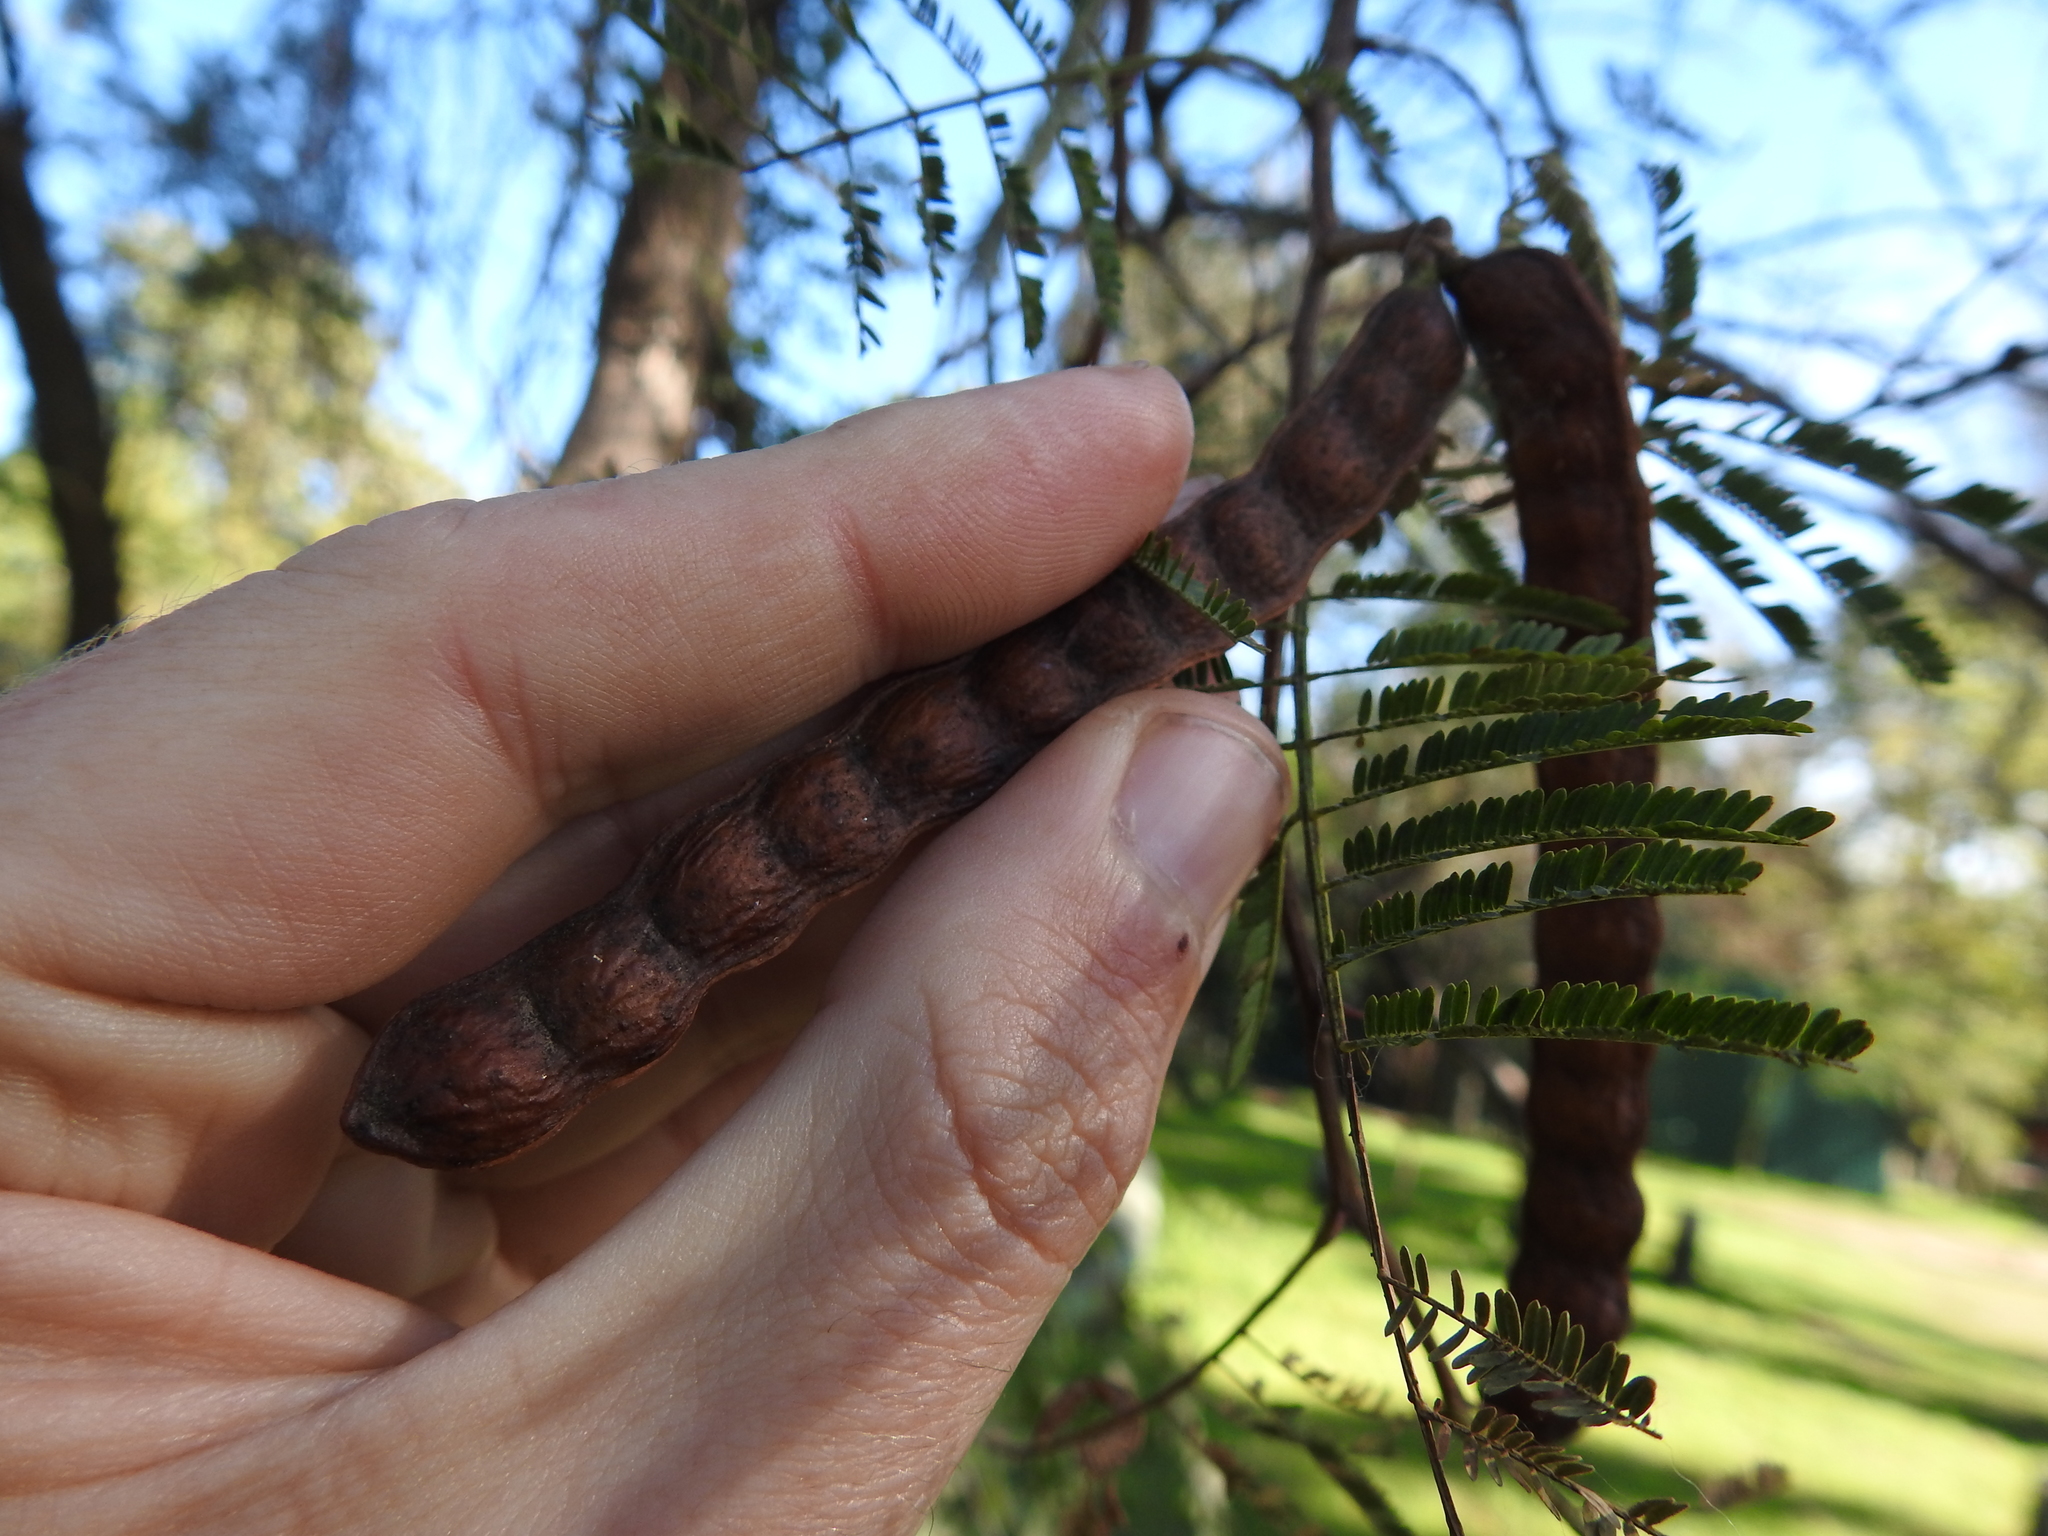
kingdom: Plantae
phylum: Tracheophyta
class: Magnoliopsida
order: Fabales
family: Fabaceae
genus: Vachellia
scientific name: Vachellia aroma
